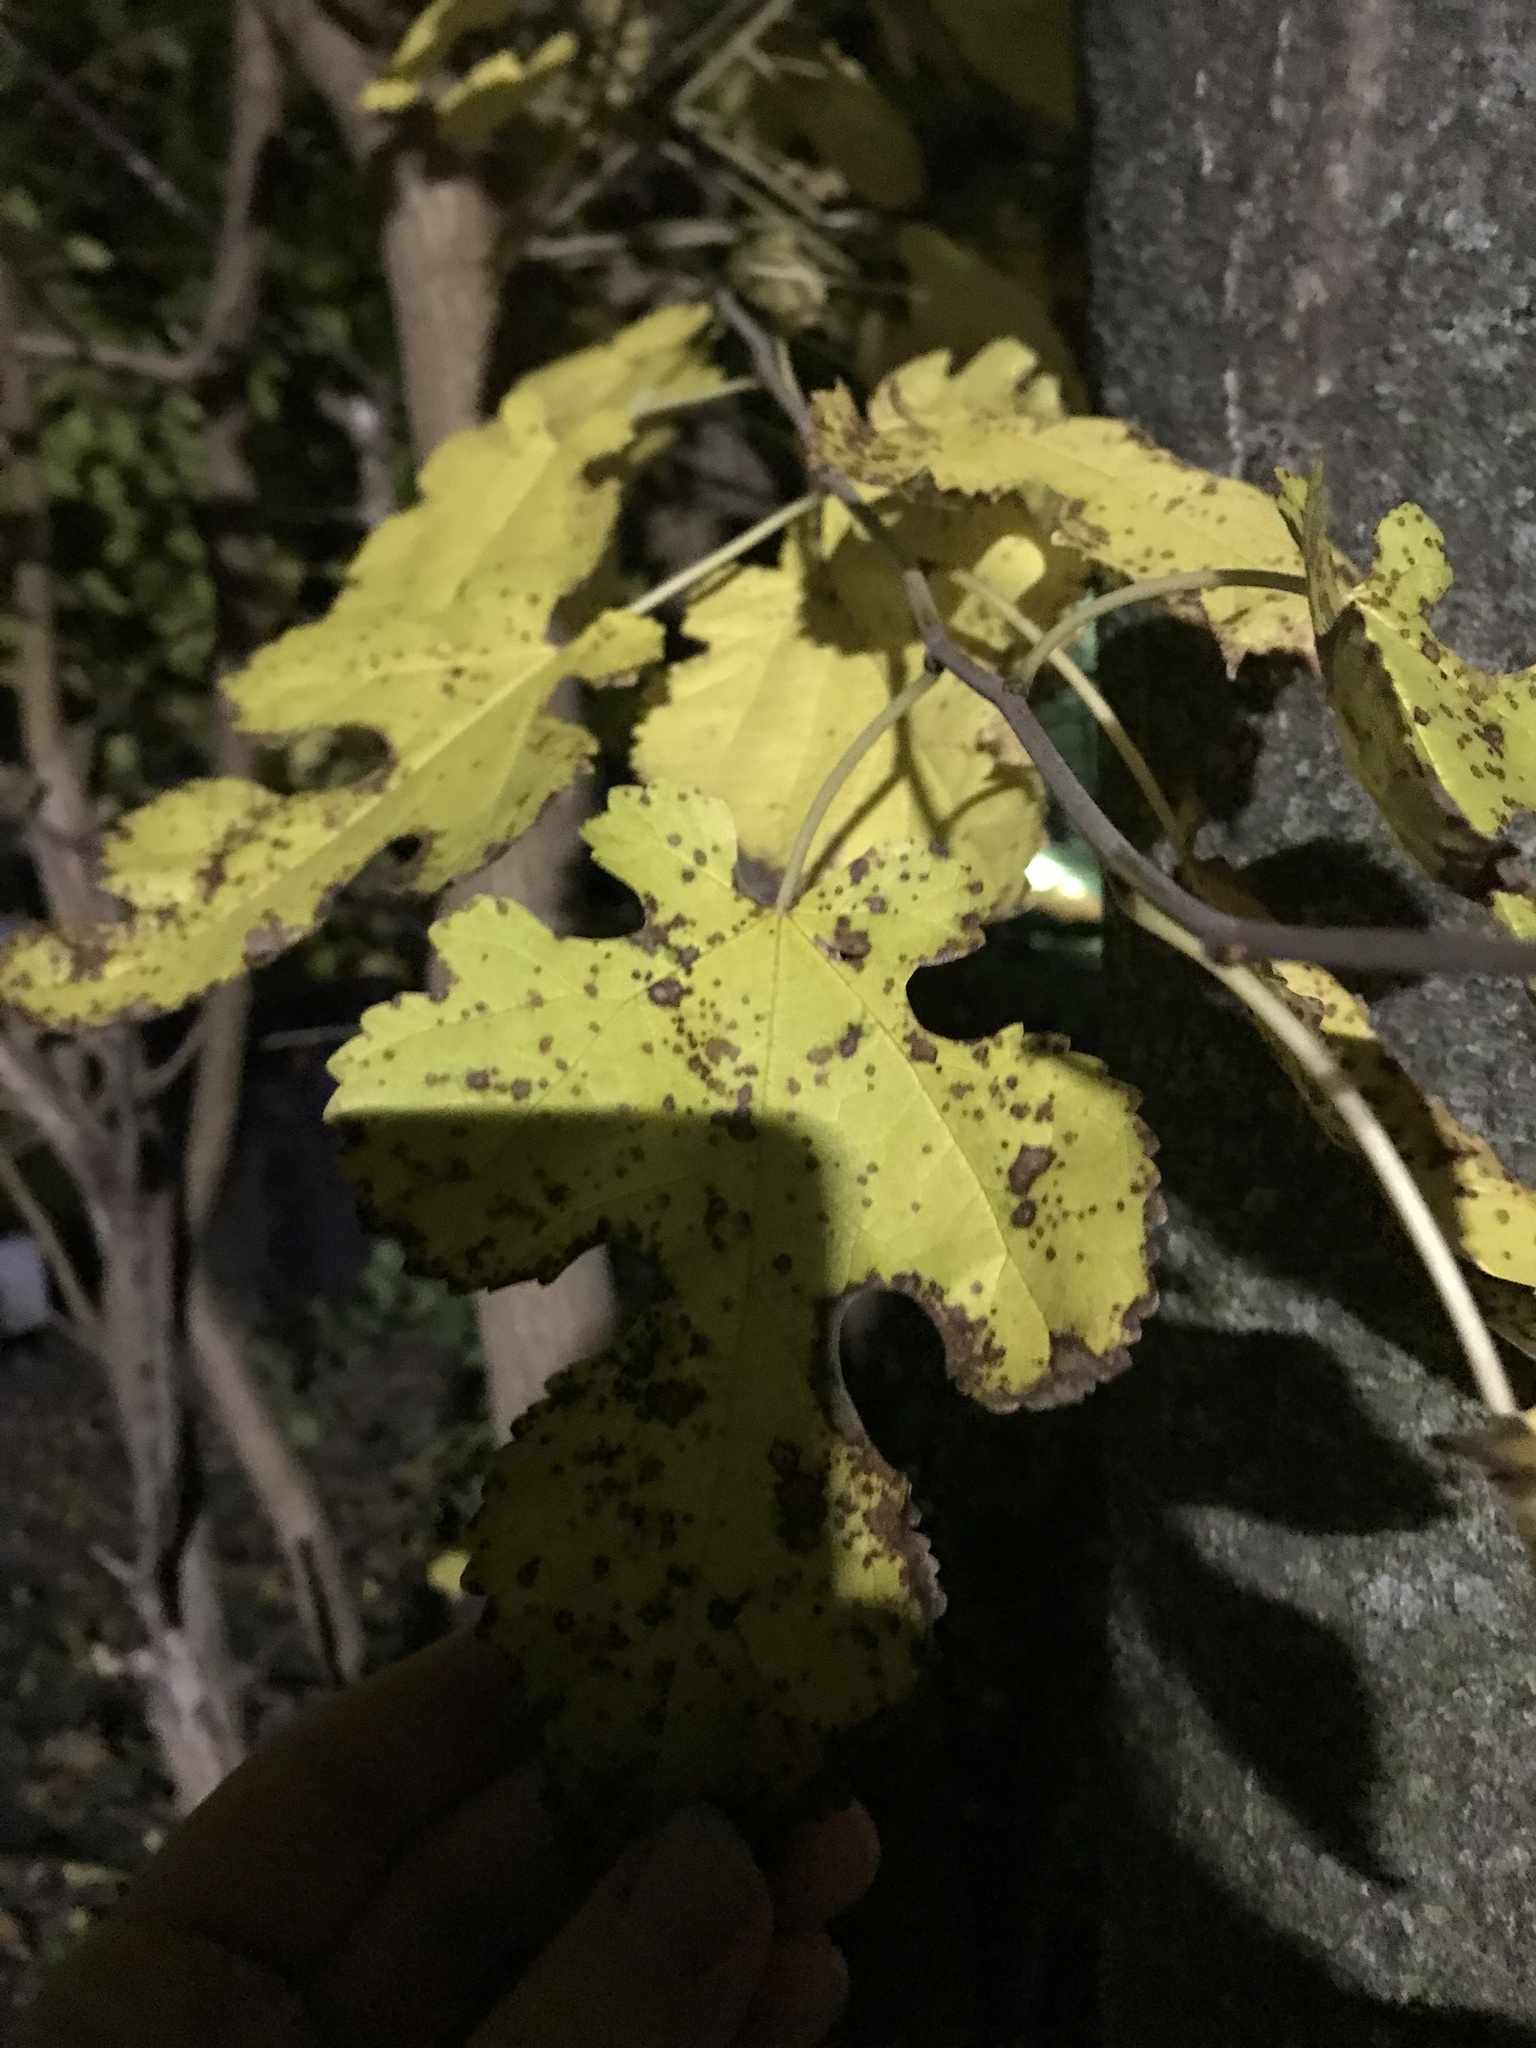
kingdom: Plantae
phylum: Tracheophyta
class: Magnoliopsida
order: Rosales
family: Moraceae
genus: Morus
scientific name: Morus alba
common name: White mulberry
